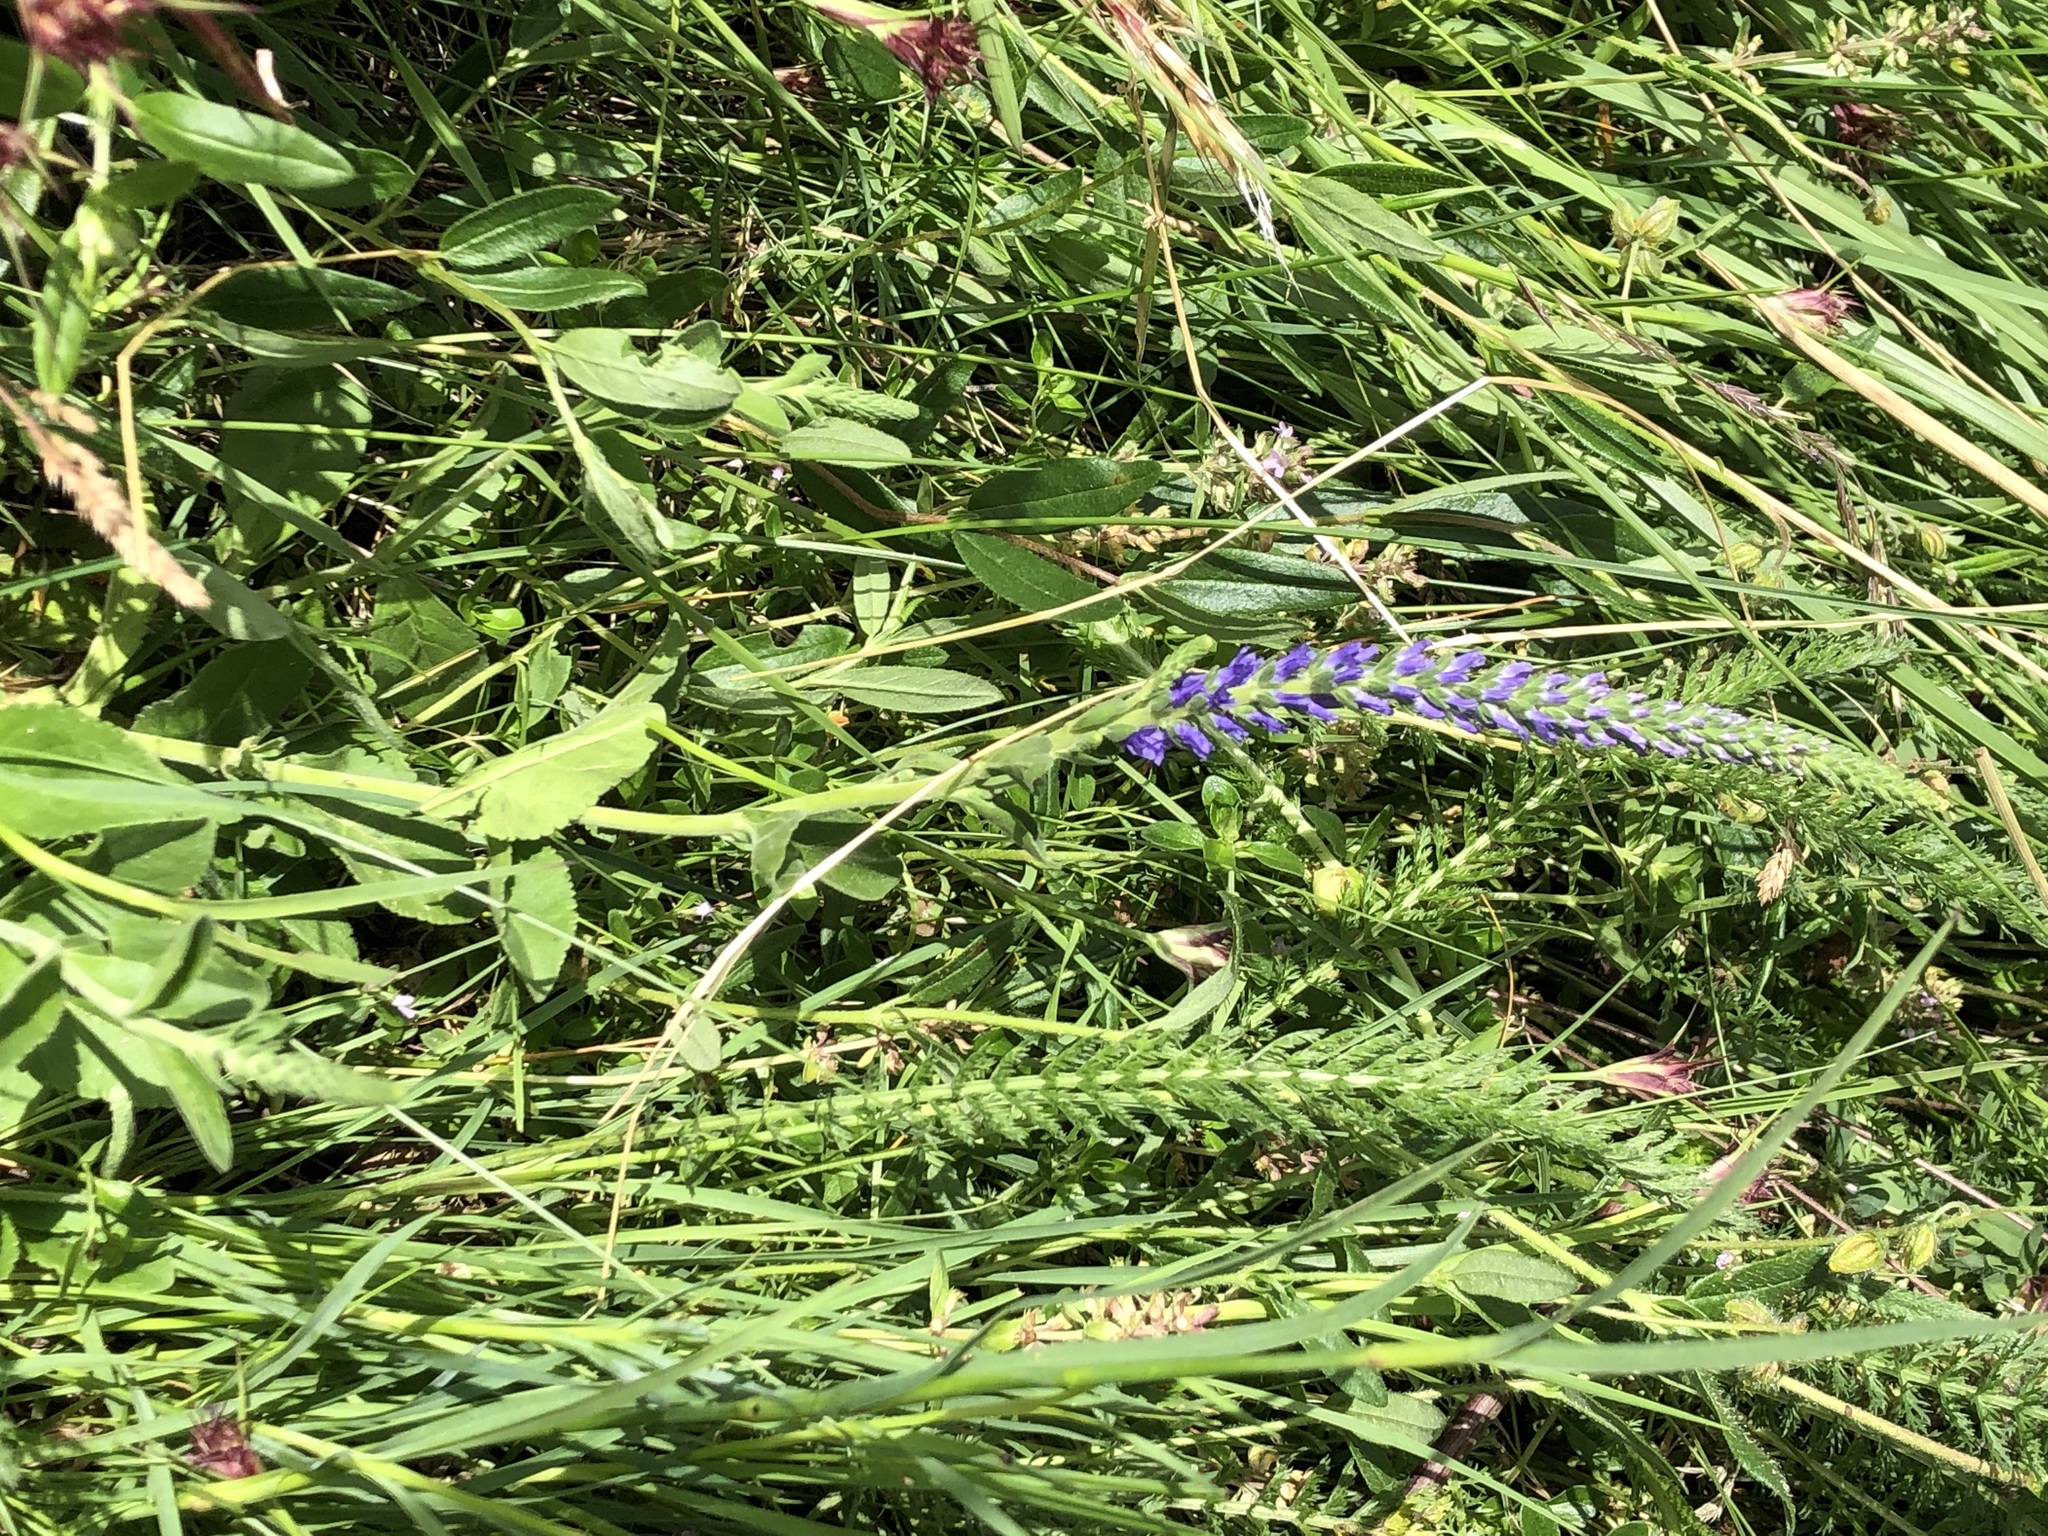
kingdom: Plantae
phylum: Tracheophyta
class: Magnoliopsida
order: Lamiales
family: Plantaginaceae
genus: Veronica
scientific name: Veronica spicata
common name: Spiked speedwell
